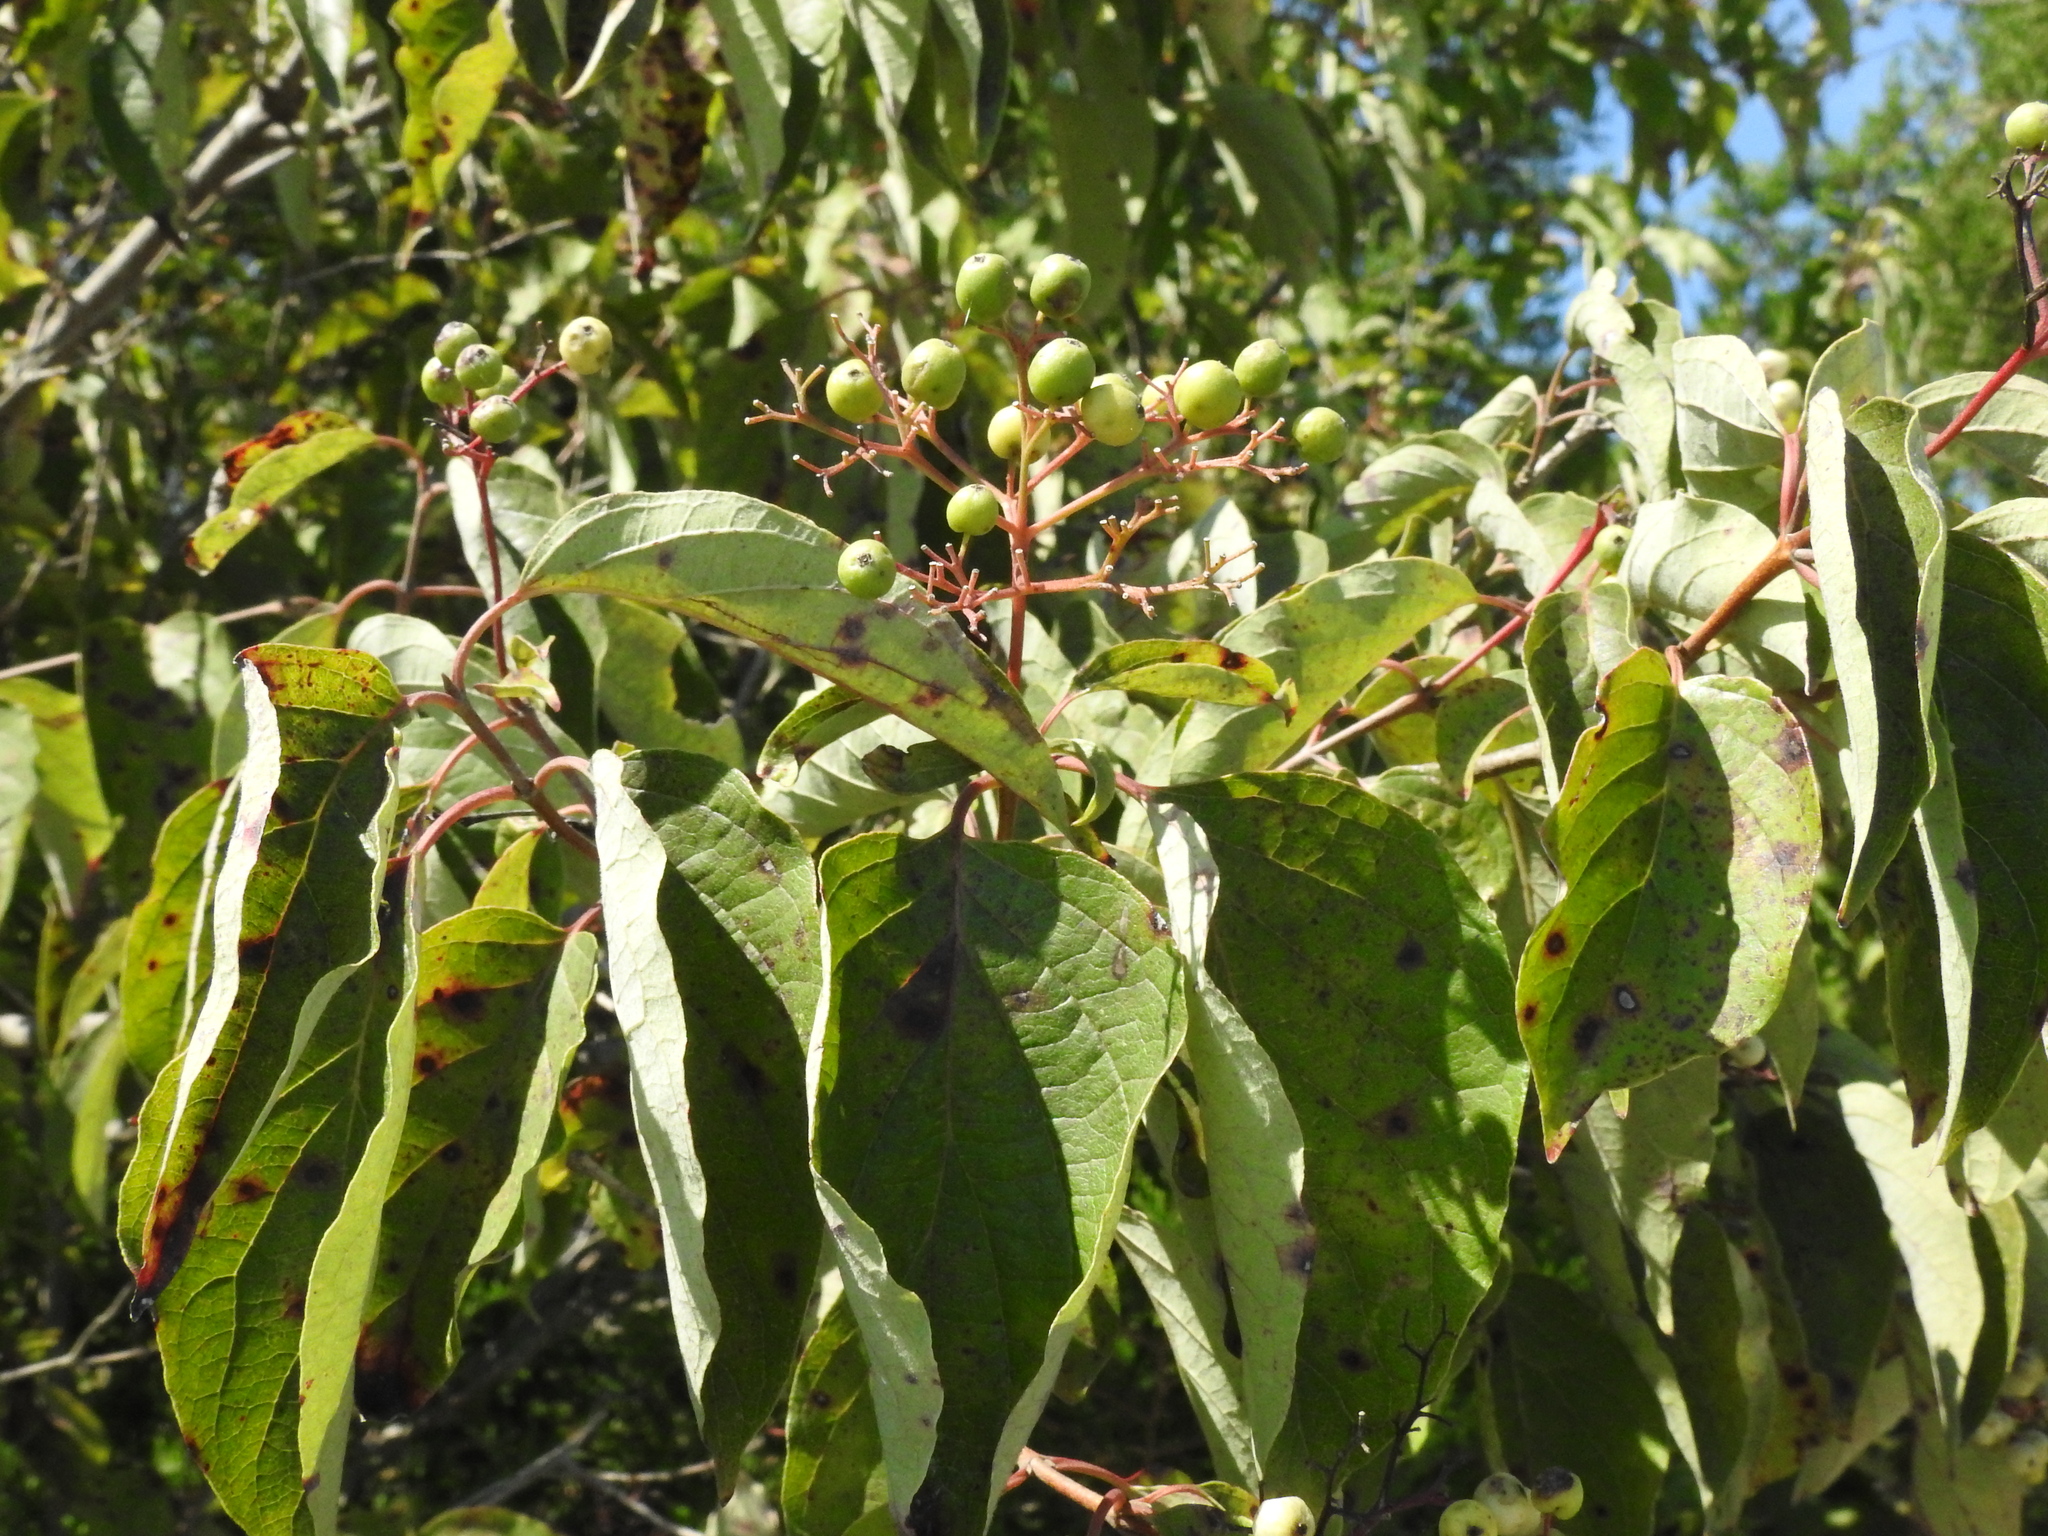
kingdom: Plantae
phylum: Tracheophyta
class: Magnoliopsida
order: Cornales
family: Cornaceae
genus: Cornus
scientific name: Cornus drummondii
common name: Rough-leaf dogwood
